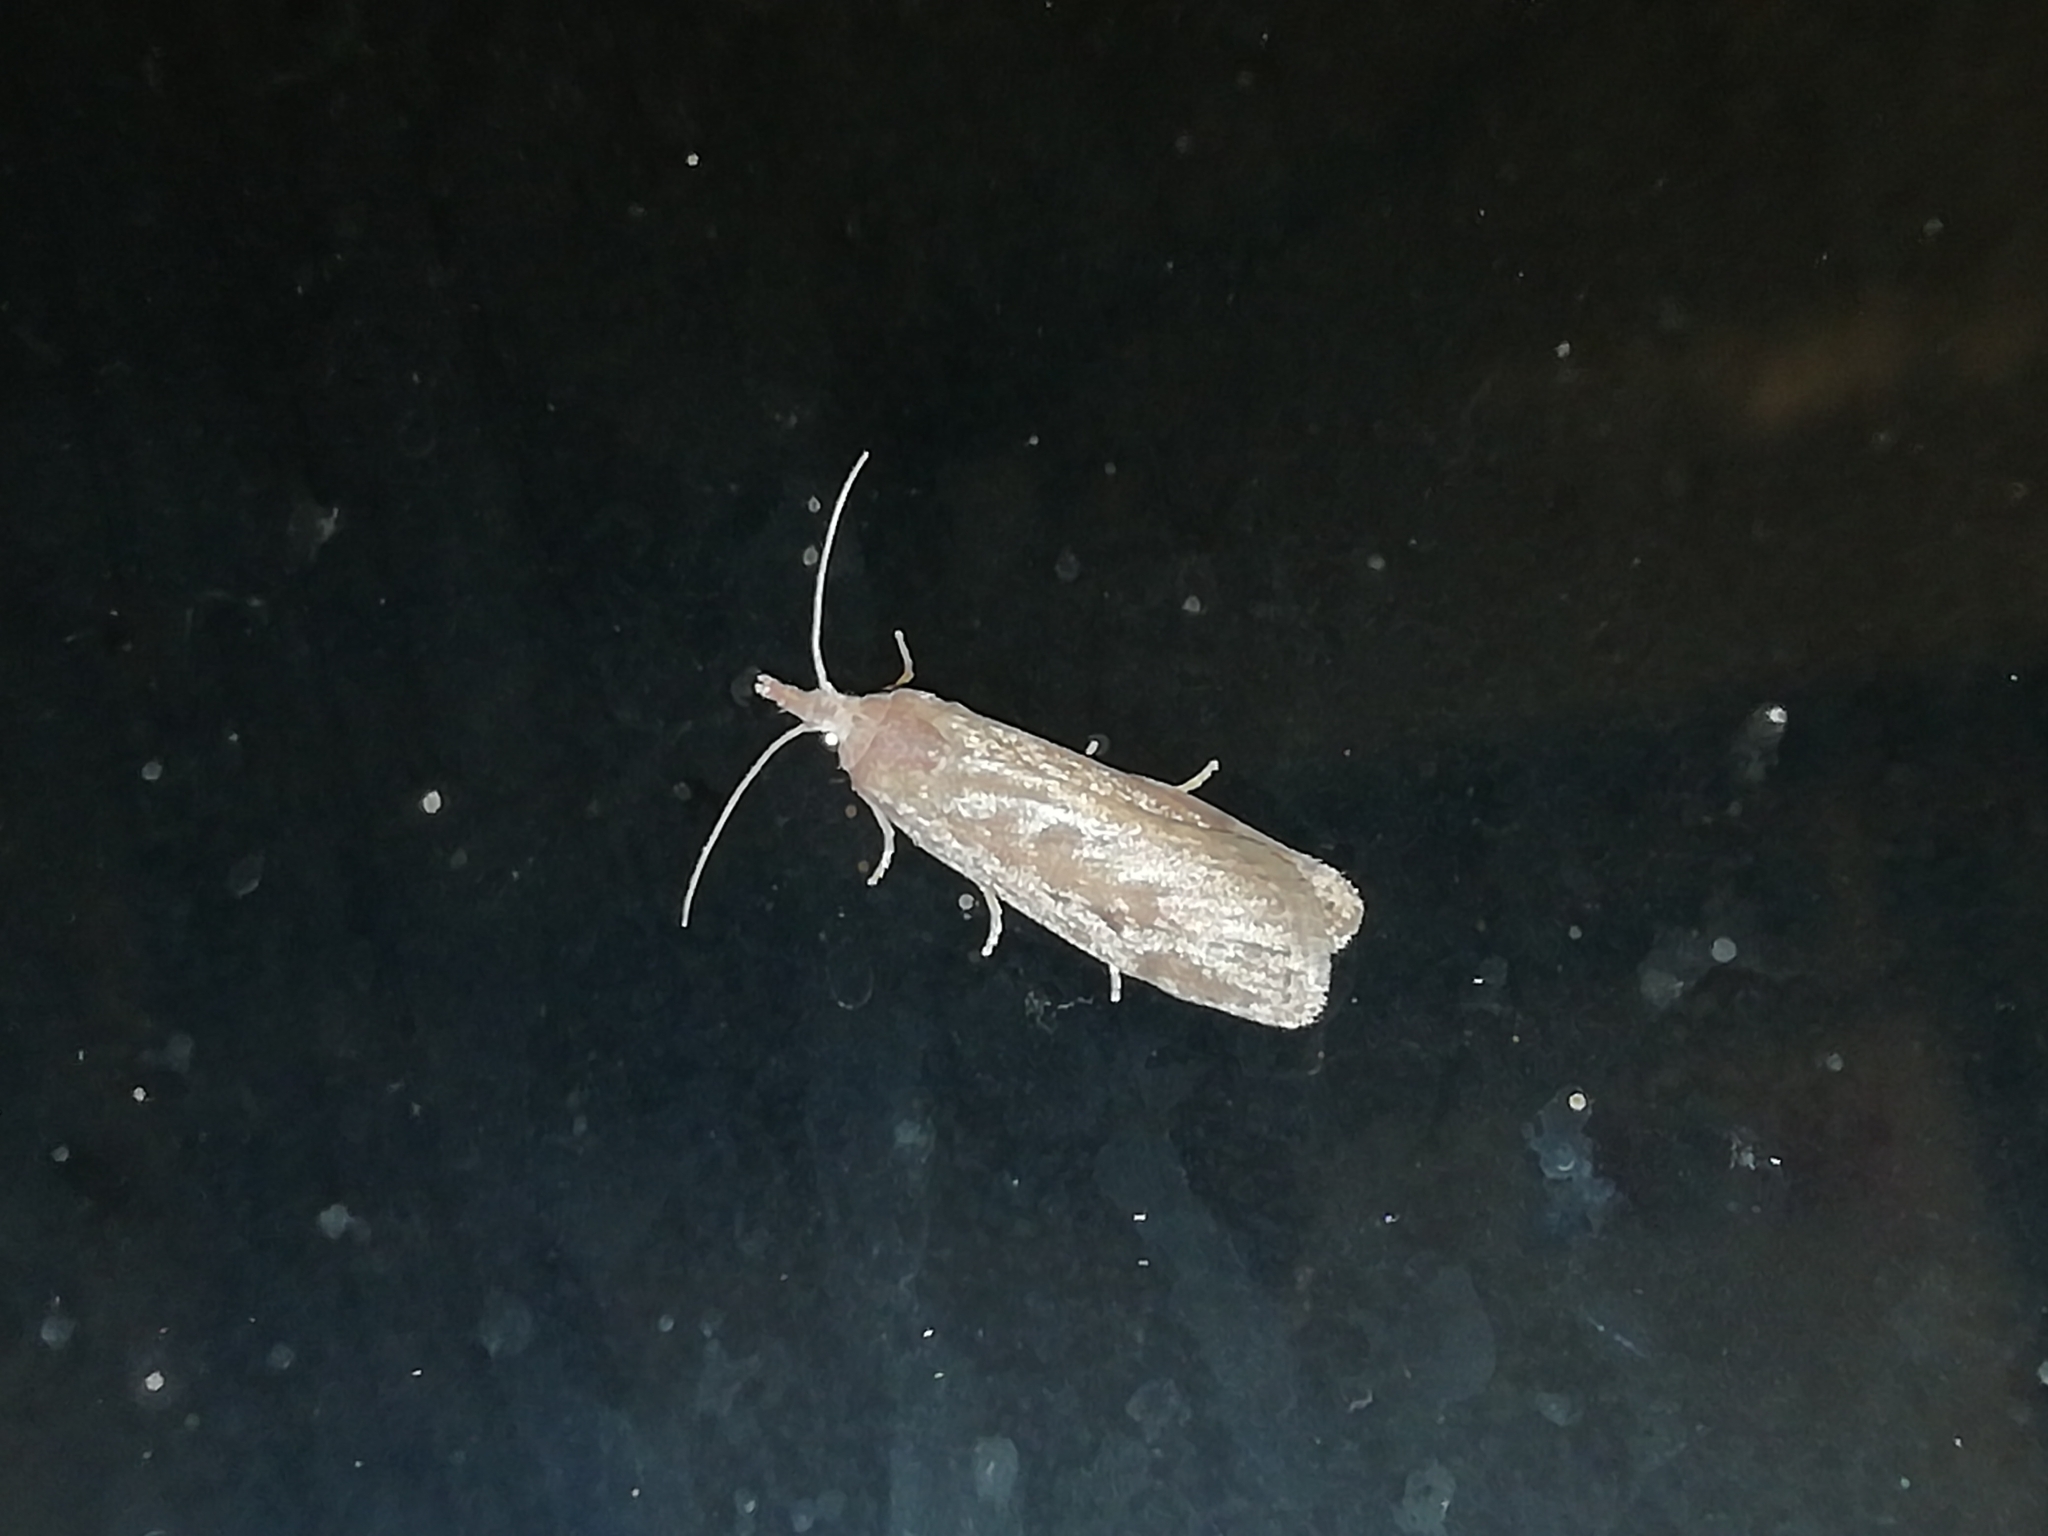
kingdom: Animalia
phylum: Arthropoda
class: Insecta
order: Lepidoptera
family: Pyralidae
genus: Lamoria
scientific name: Lamoria anella
